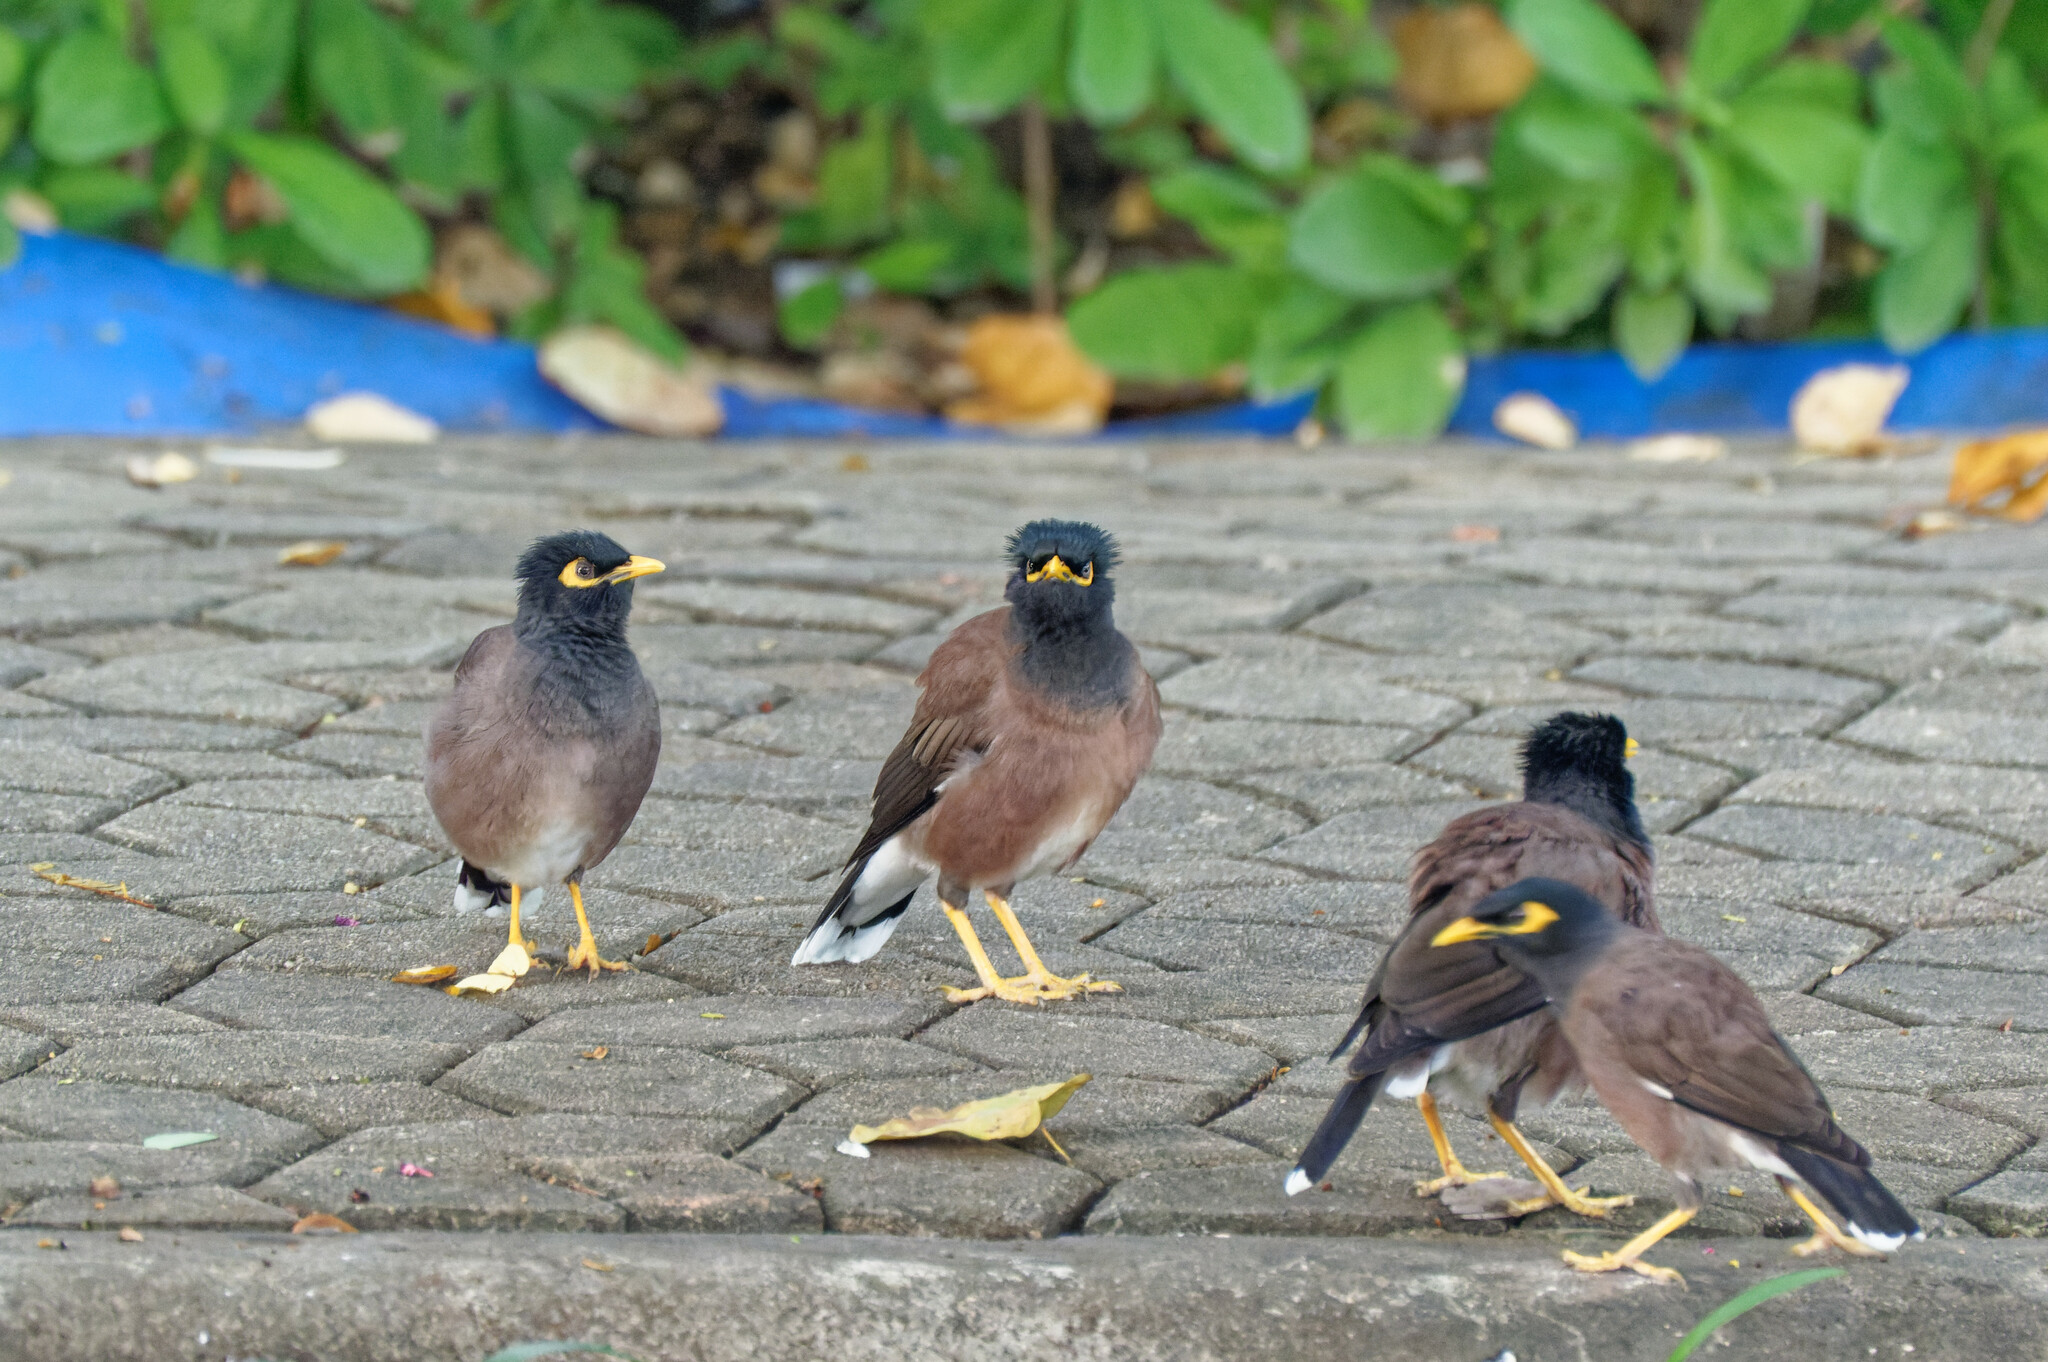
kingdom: Animalia
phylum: Chordata
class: Aves
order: Passeriformes
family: Sturnidae
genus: Acridotheres
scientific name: Acridotheres tristis
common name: Common myna
